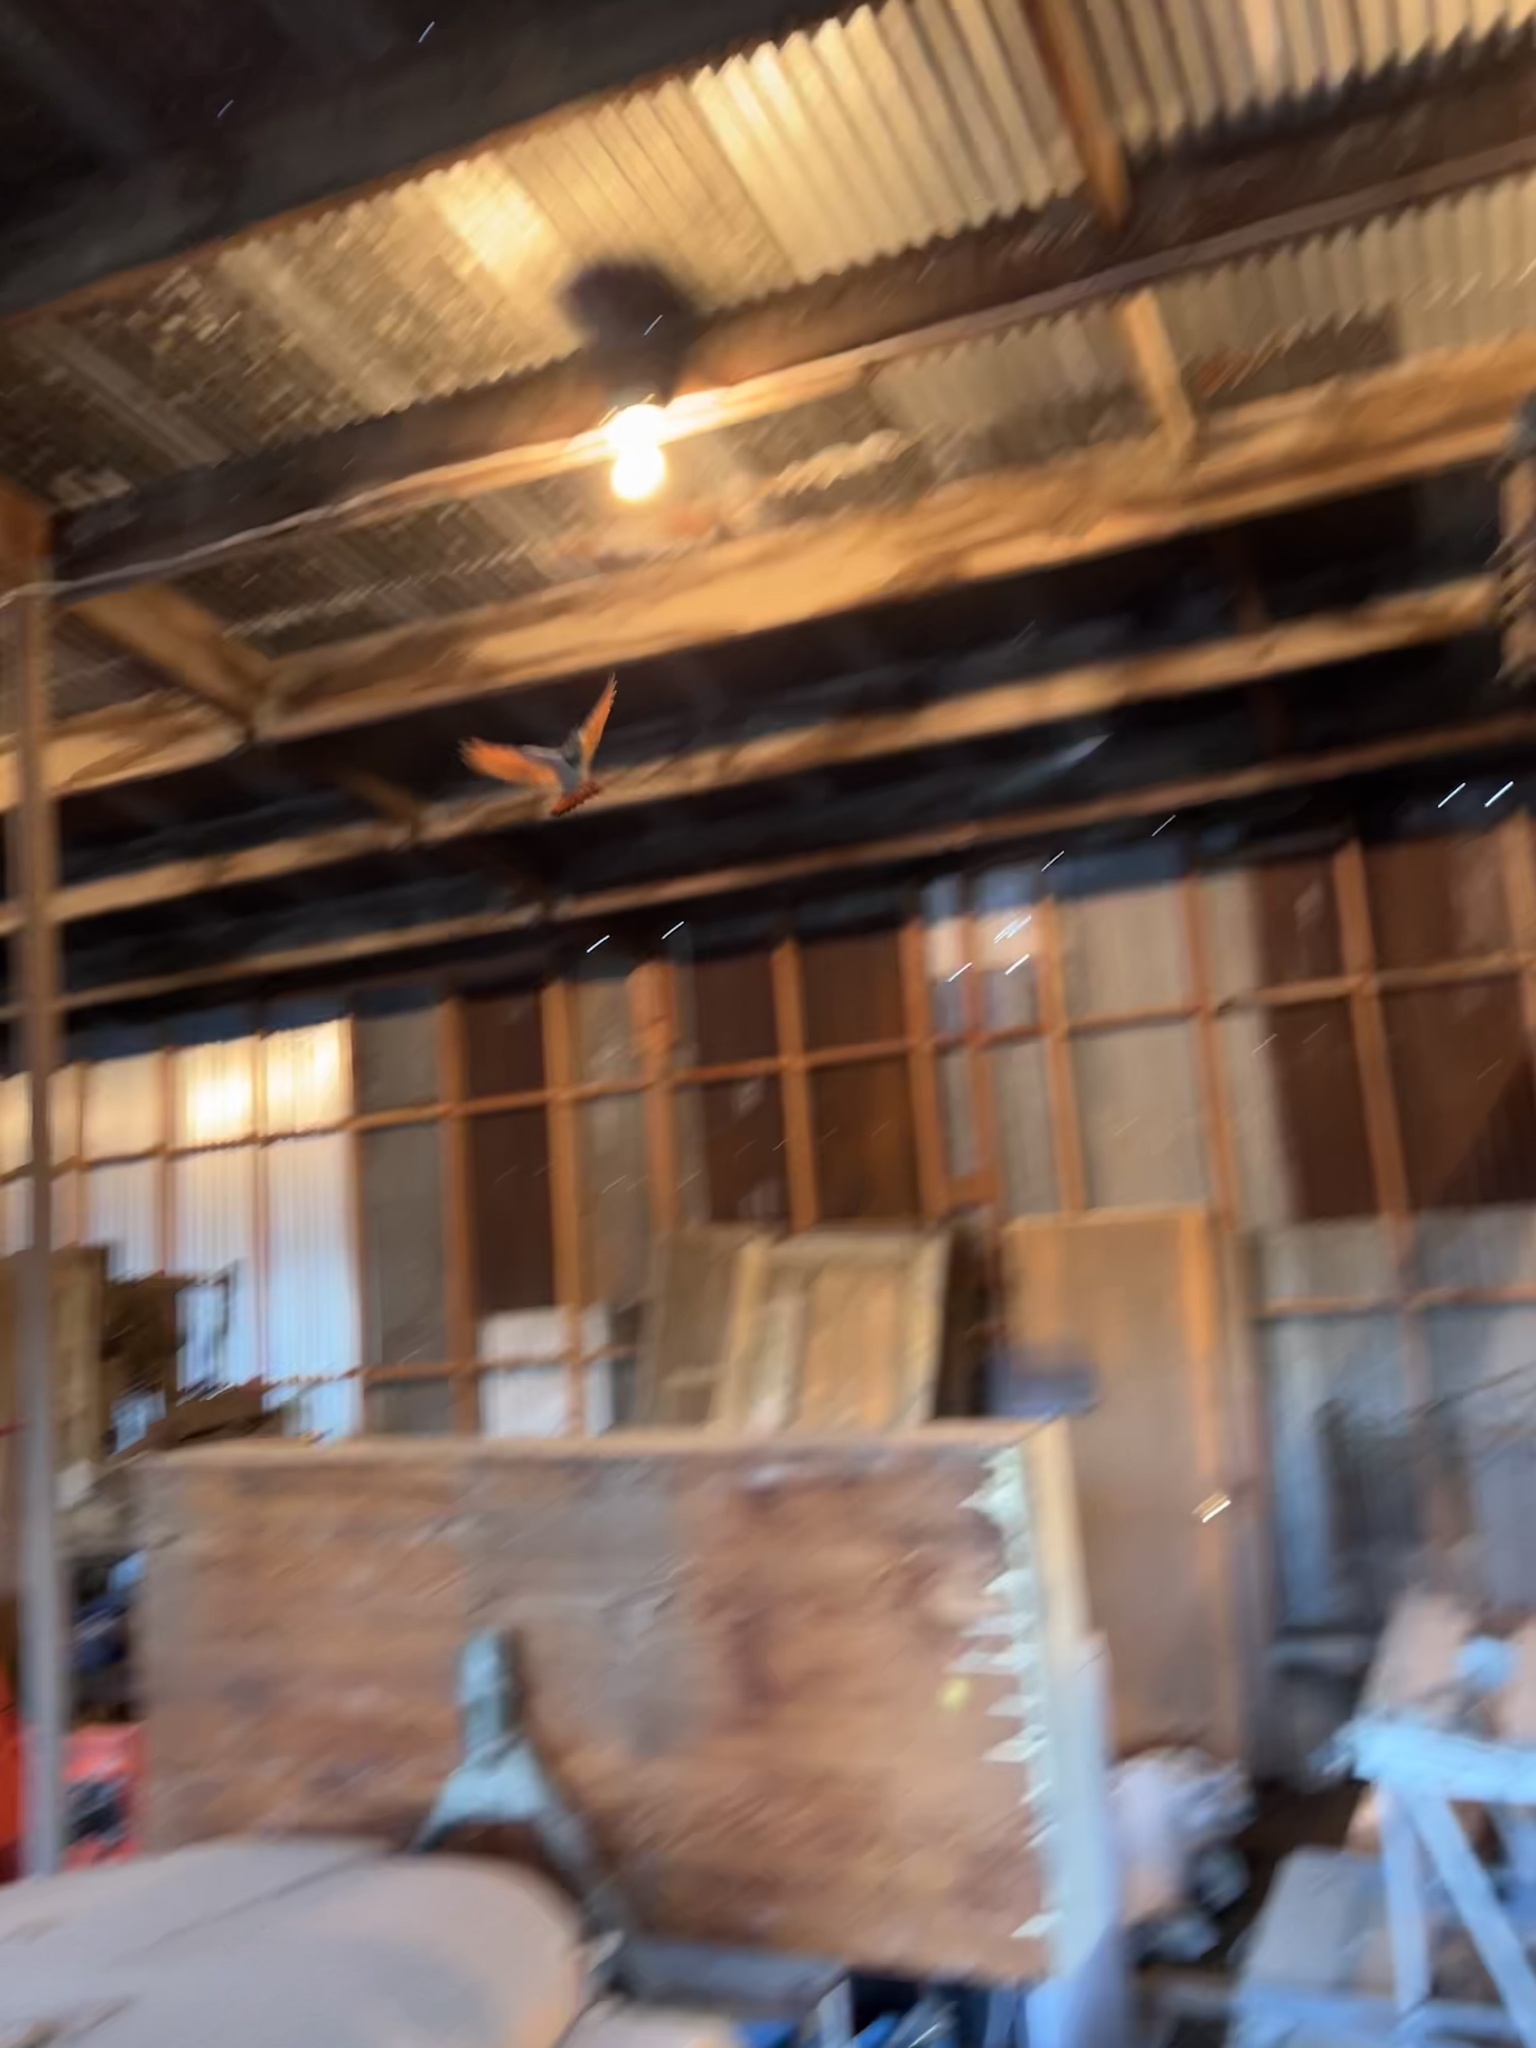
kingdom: Animalia
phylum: Chordata
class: Aves
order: Piciformes
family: Picidae
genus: Colaptes
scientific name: Colaptes auratus
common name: Northern flicker
